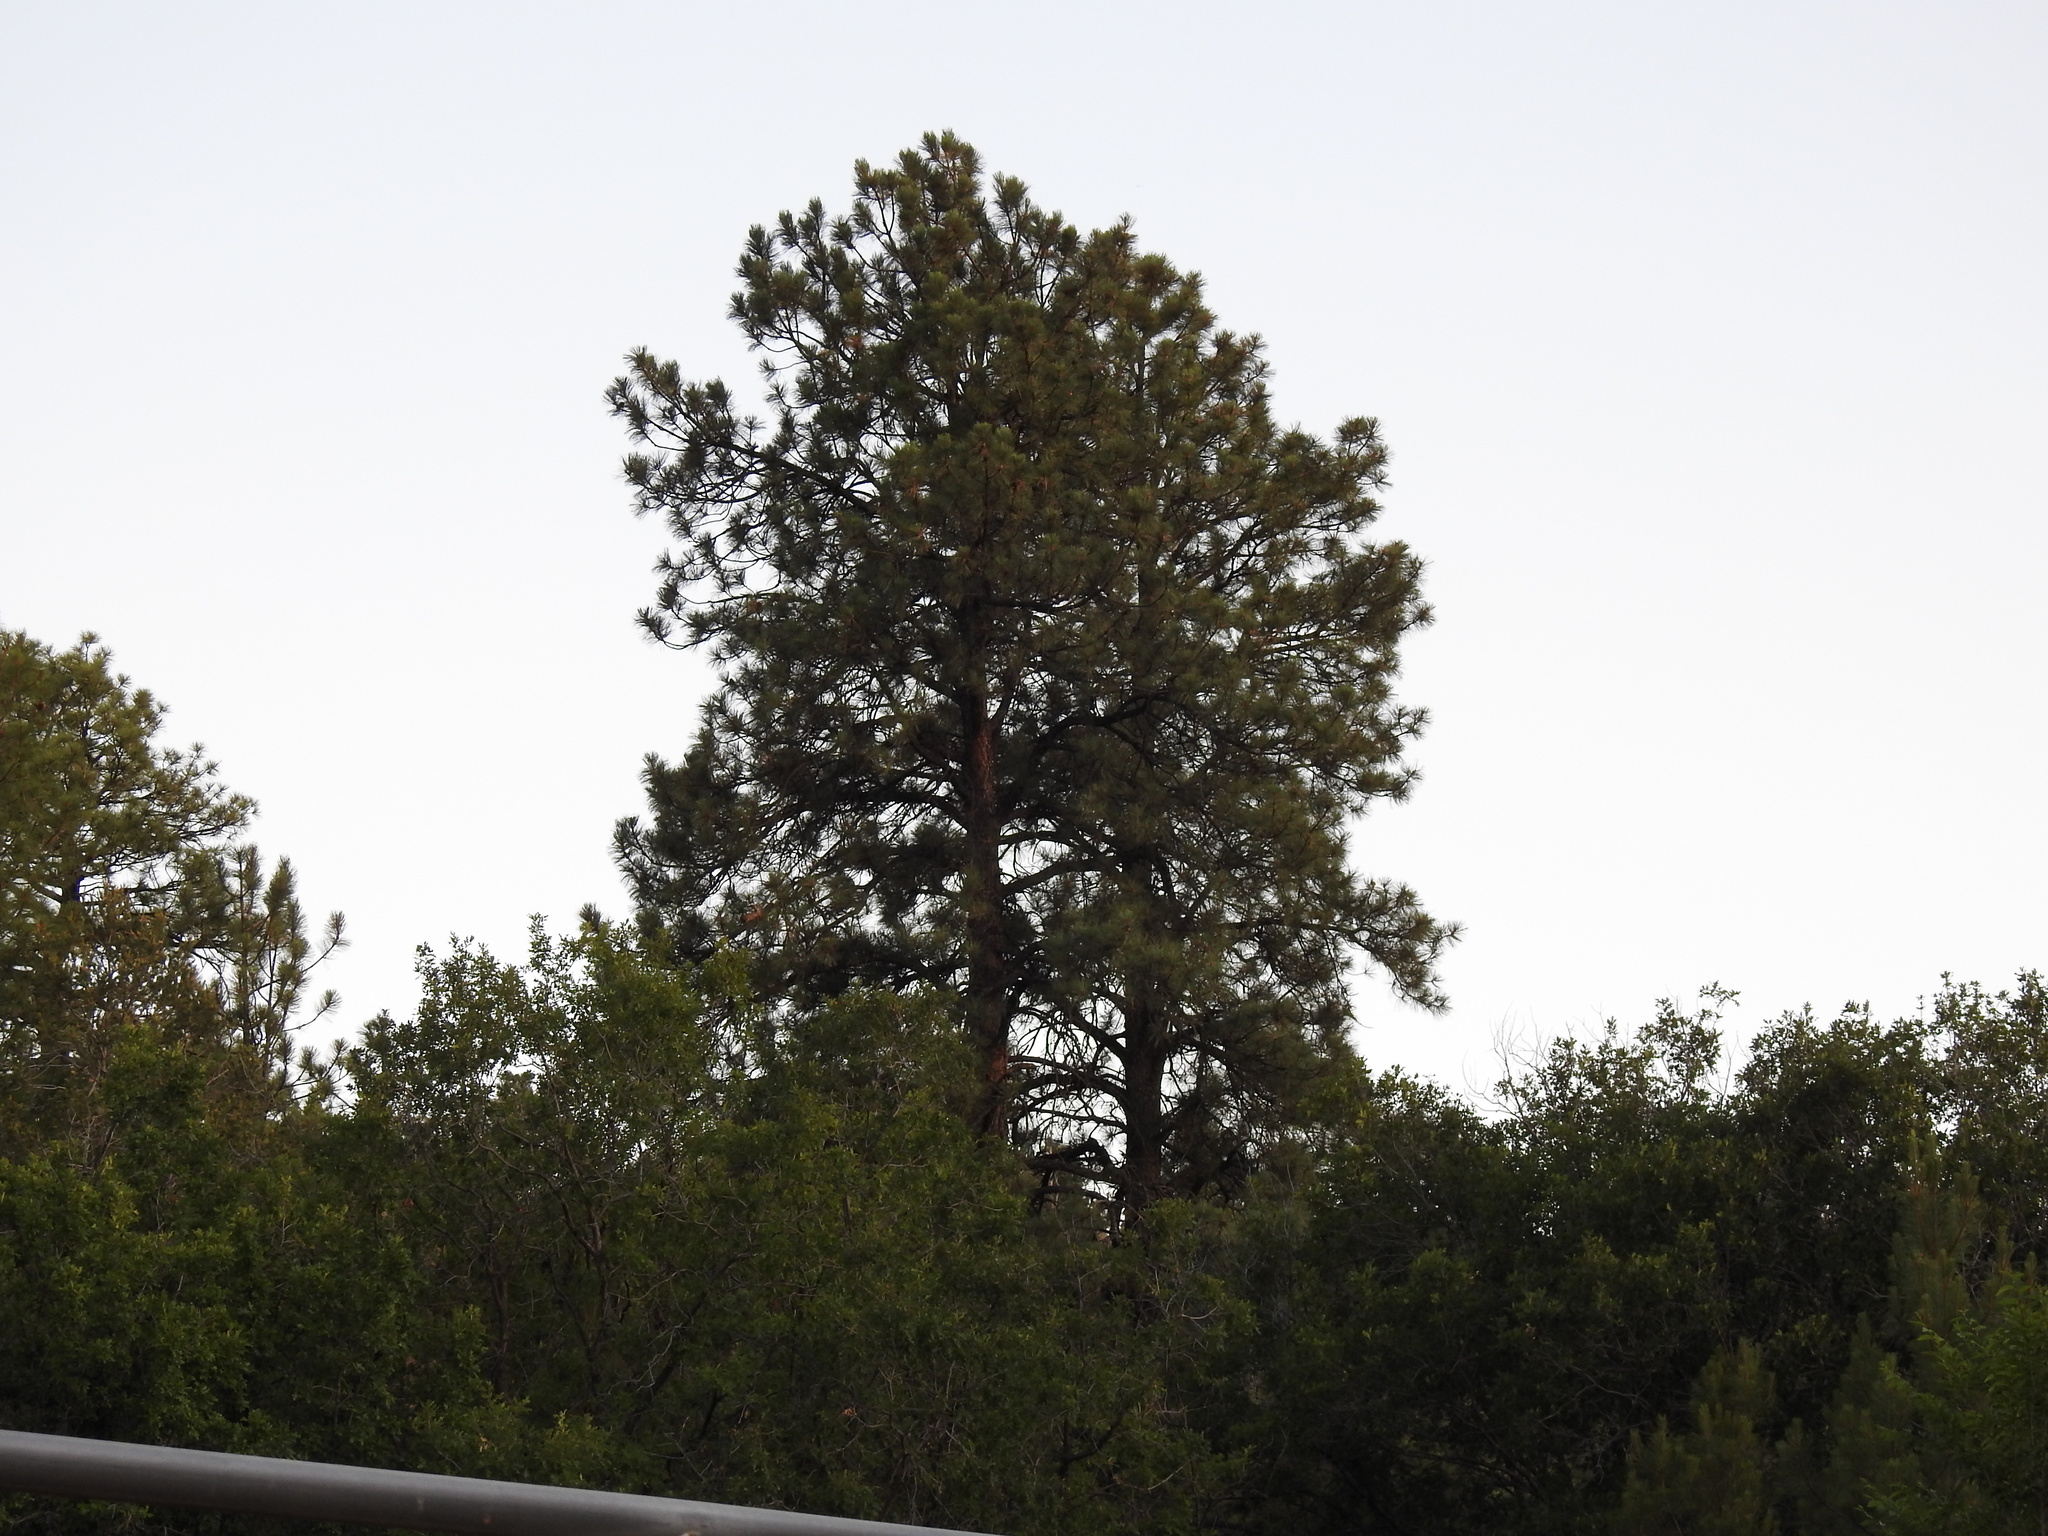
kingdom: Plantae
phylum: Tracheophyta
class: Pinopsida
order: Pinales
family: Pinaceae
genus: Pinus
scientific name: Pinus ponderosa
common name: Western yellow-pine
